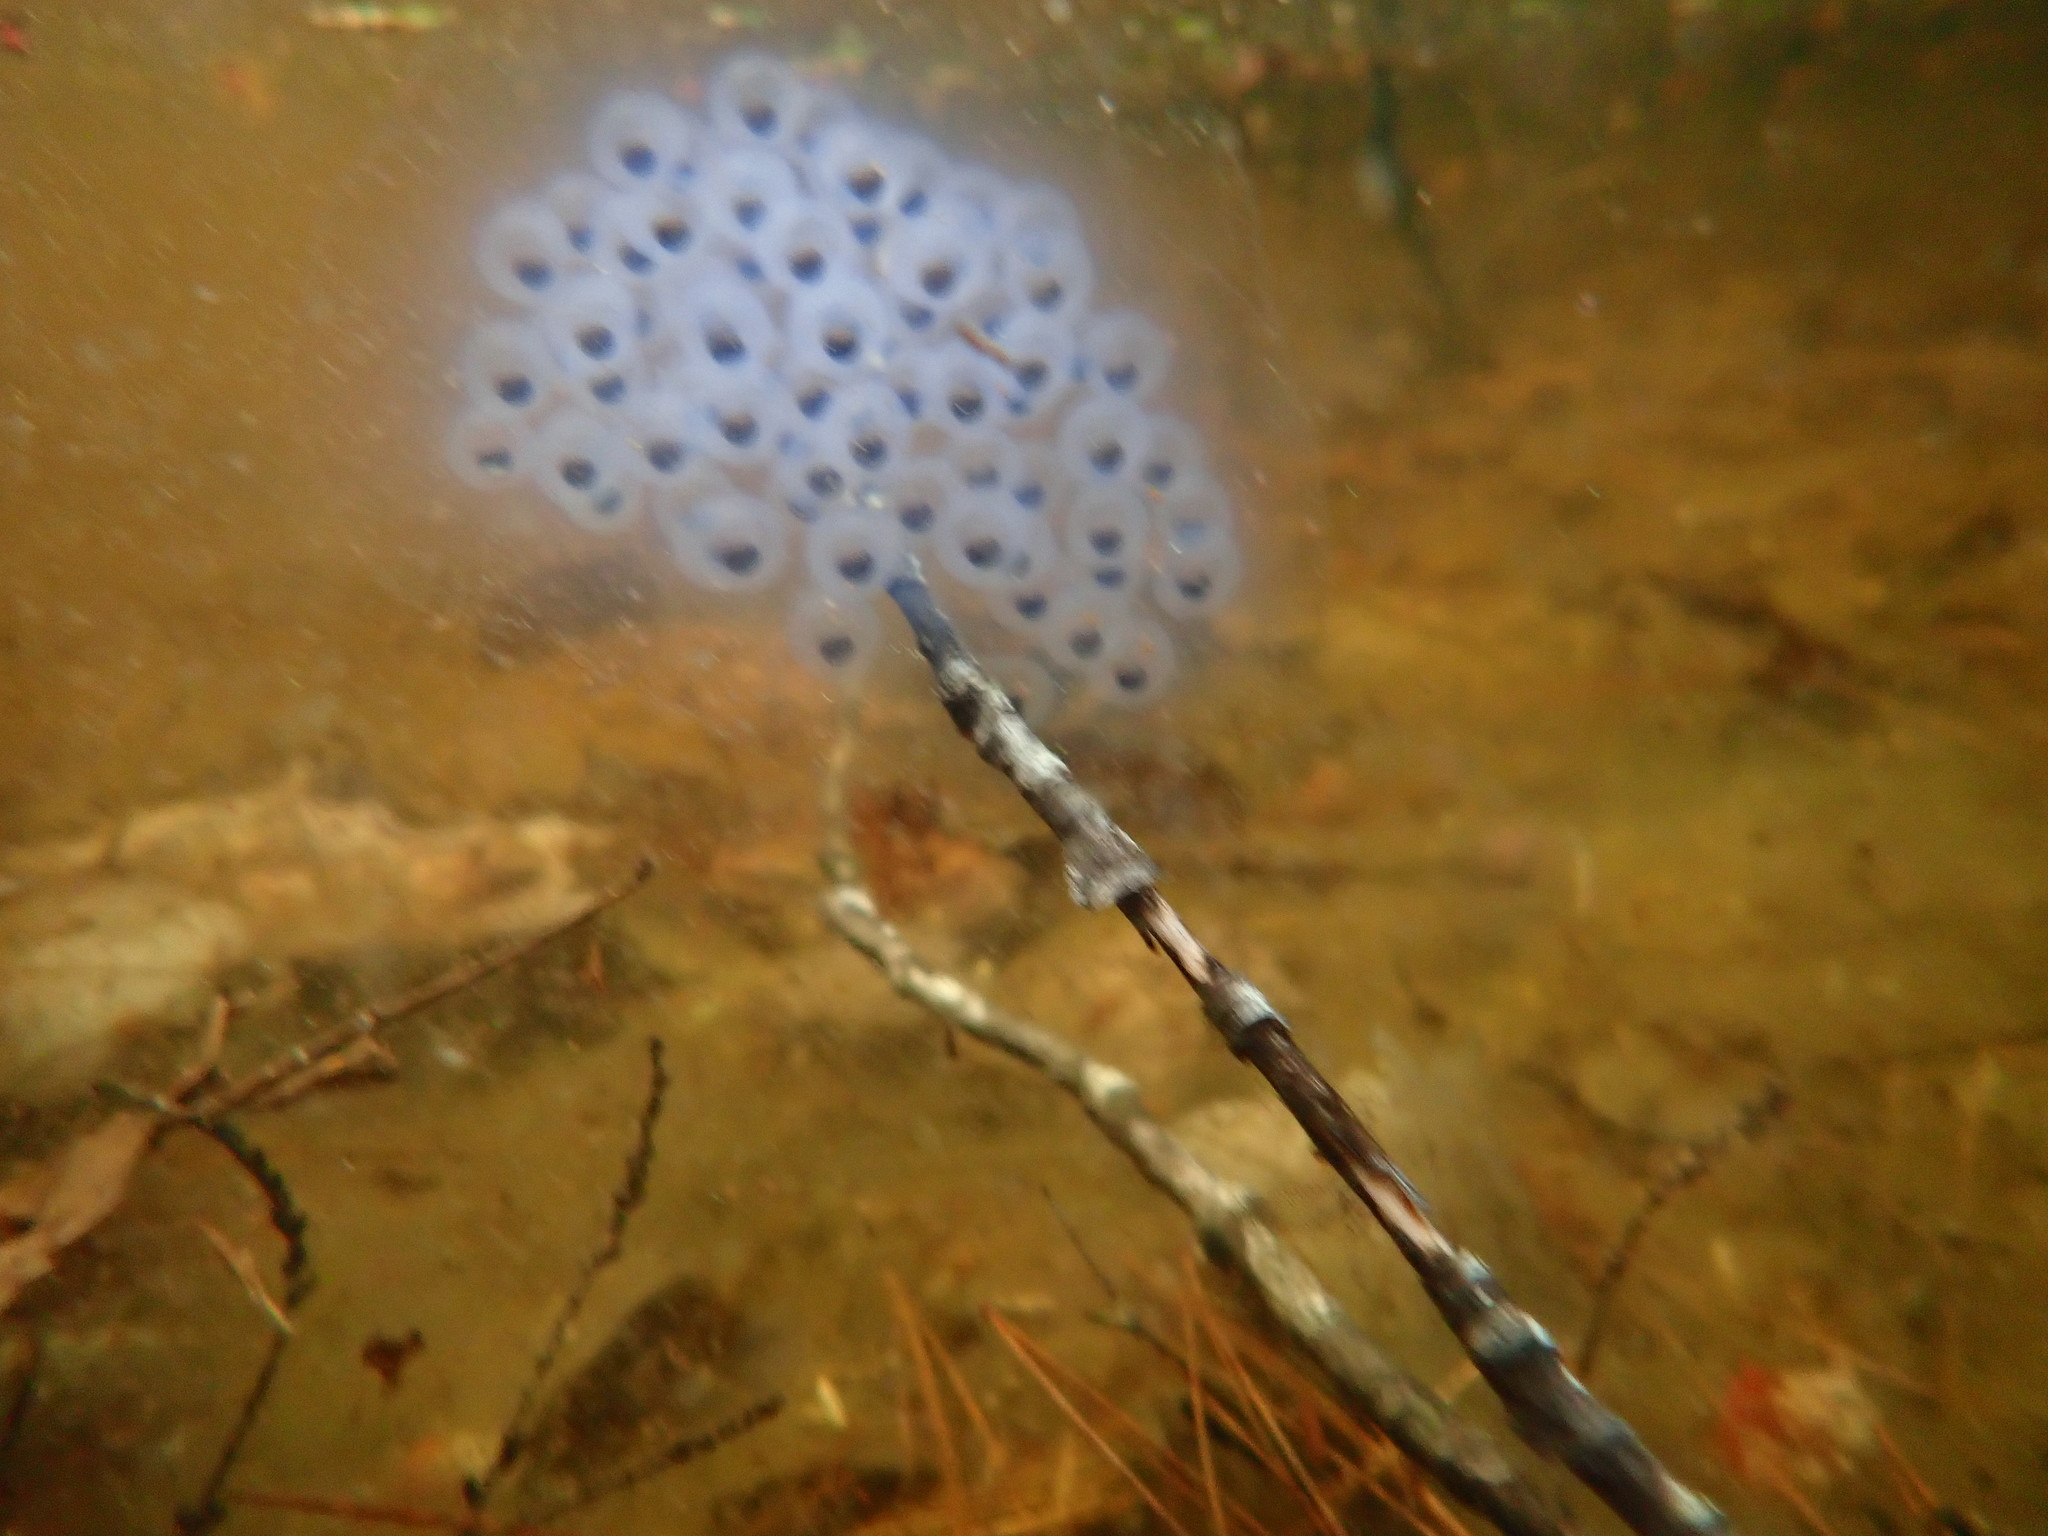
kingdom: Animalia
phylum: Chordata
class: Amphibia
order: Caudata
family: Ambystomatidae
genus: Ambystoma
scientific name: Ambystoma maculatum
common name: Spotted salamander
